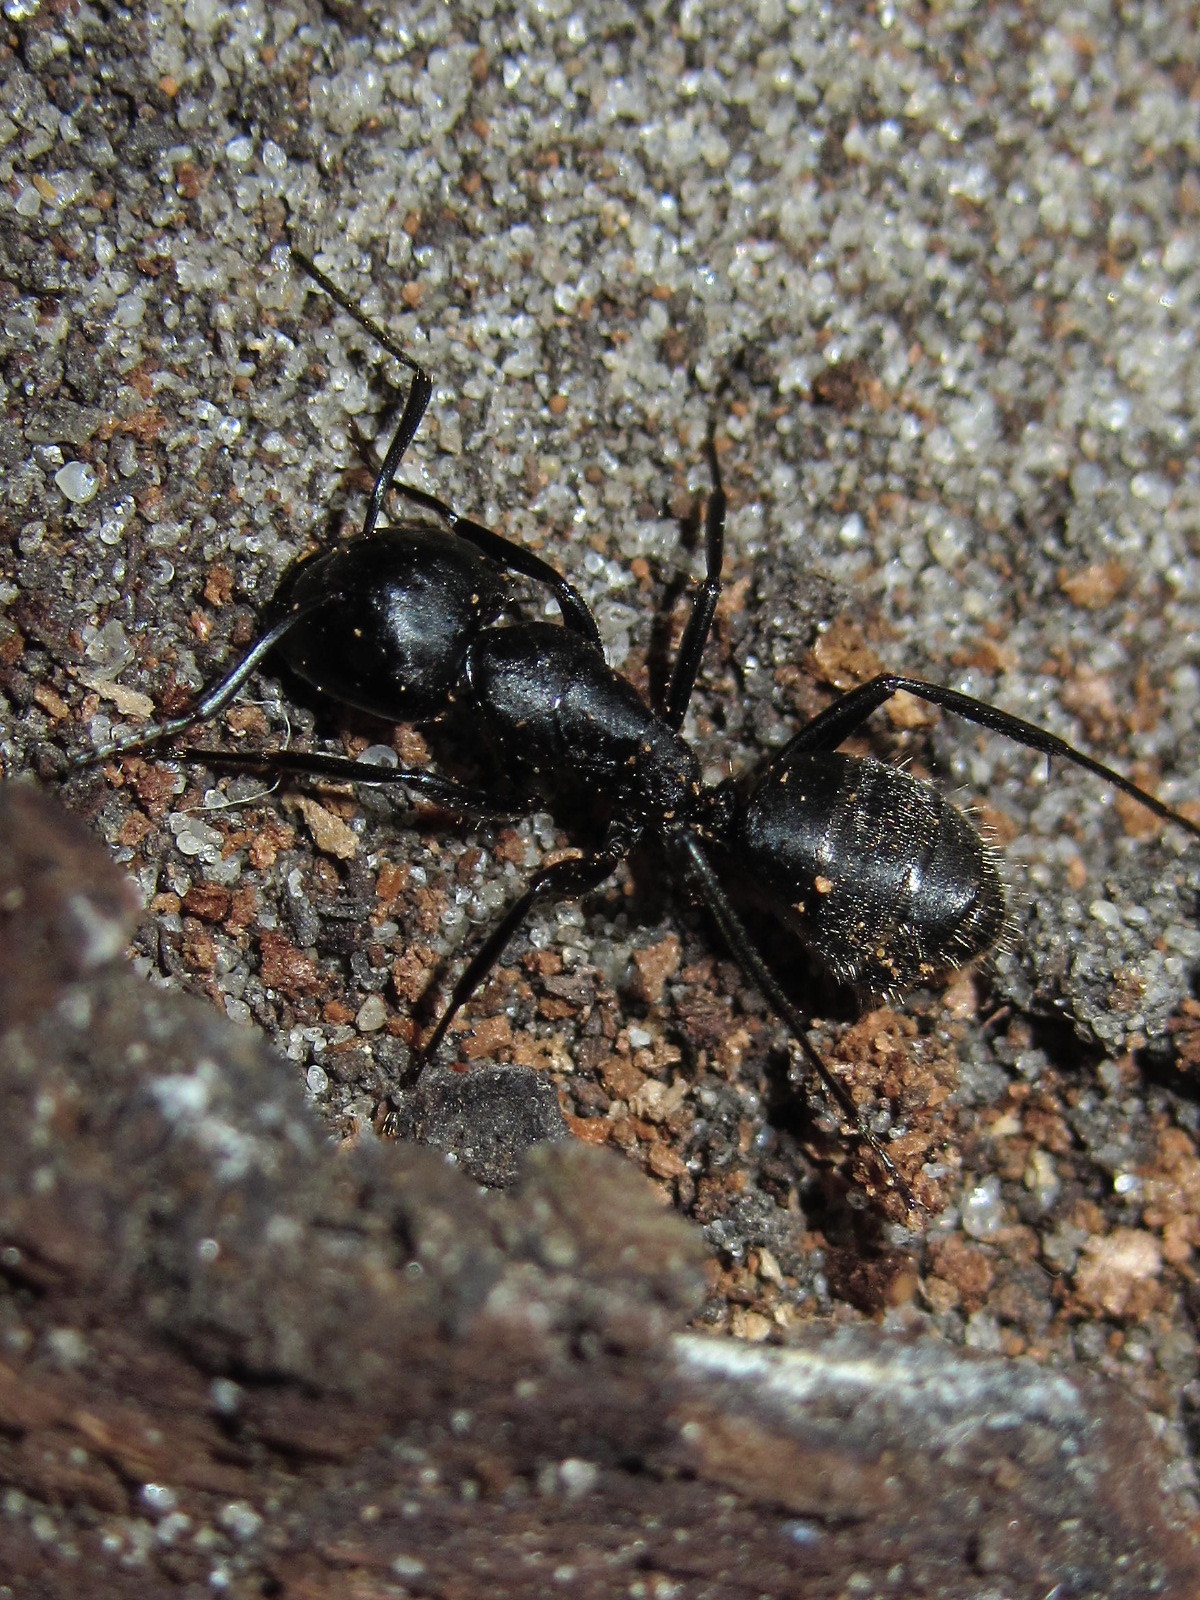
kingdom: Animalia
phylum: Arthropoda
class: Insecta
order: Hymenoptera
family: Formicidae
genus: Camponotus
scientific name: Camponotus vagus
